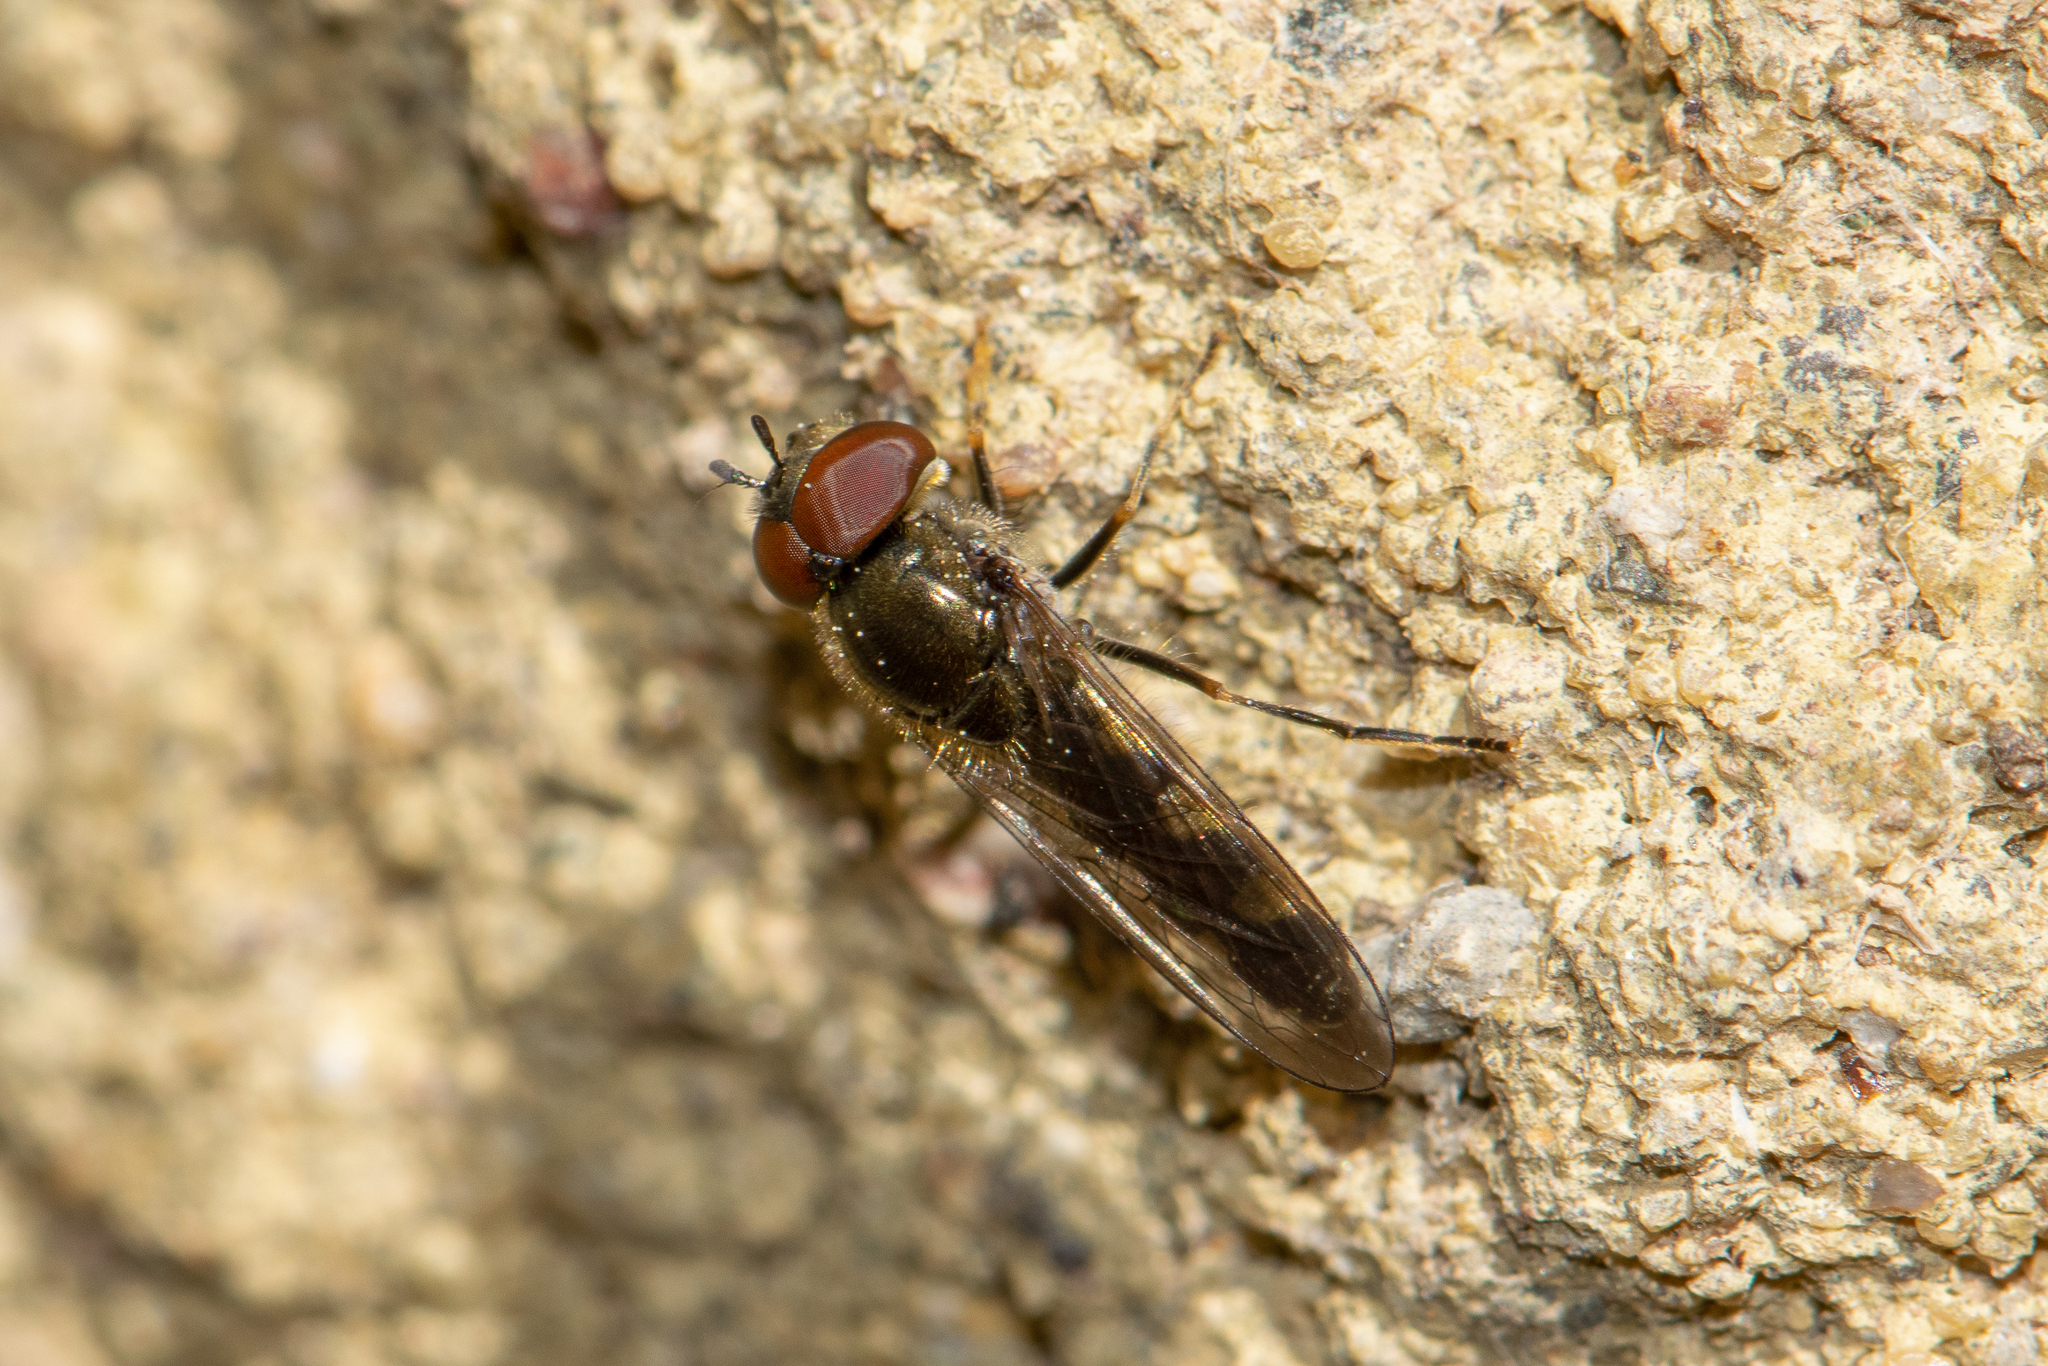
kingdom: Animalia
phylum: Arthropoda
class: Insecta
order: Diptera
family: Syrphidae
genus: Platycheirus
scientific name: Platycheirus albimanus
